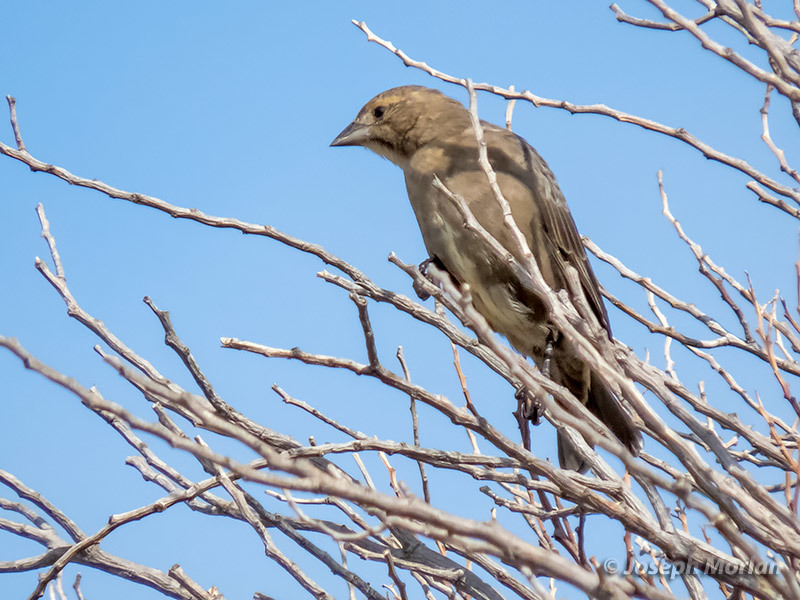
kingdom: Animalia
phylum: Chordata
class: Aves
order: Passeriformes
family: Icteridae
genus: Molothrus
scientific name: Molothrus ater
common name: Brown-headed cowbird
